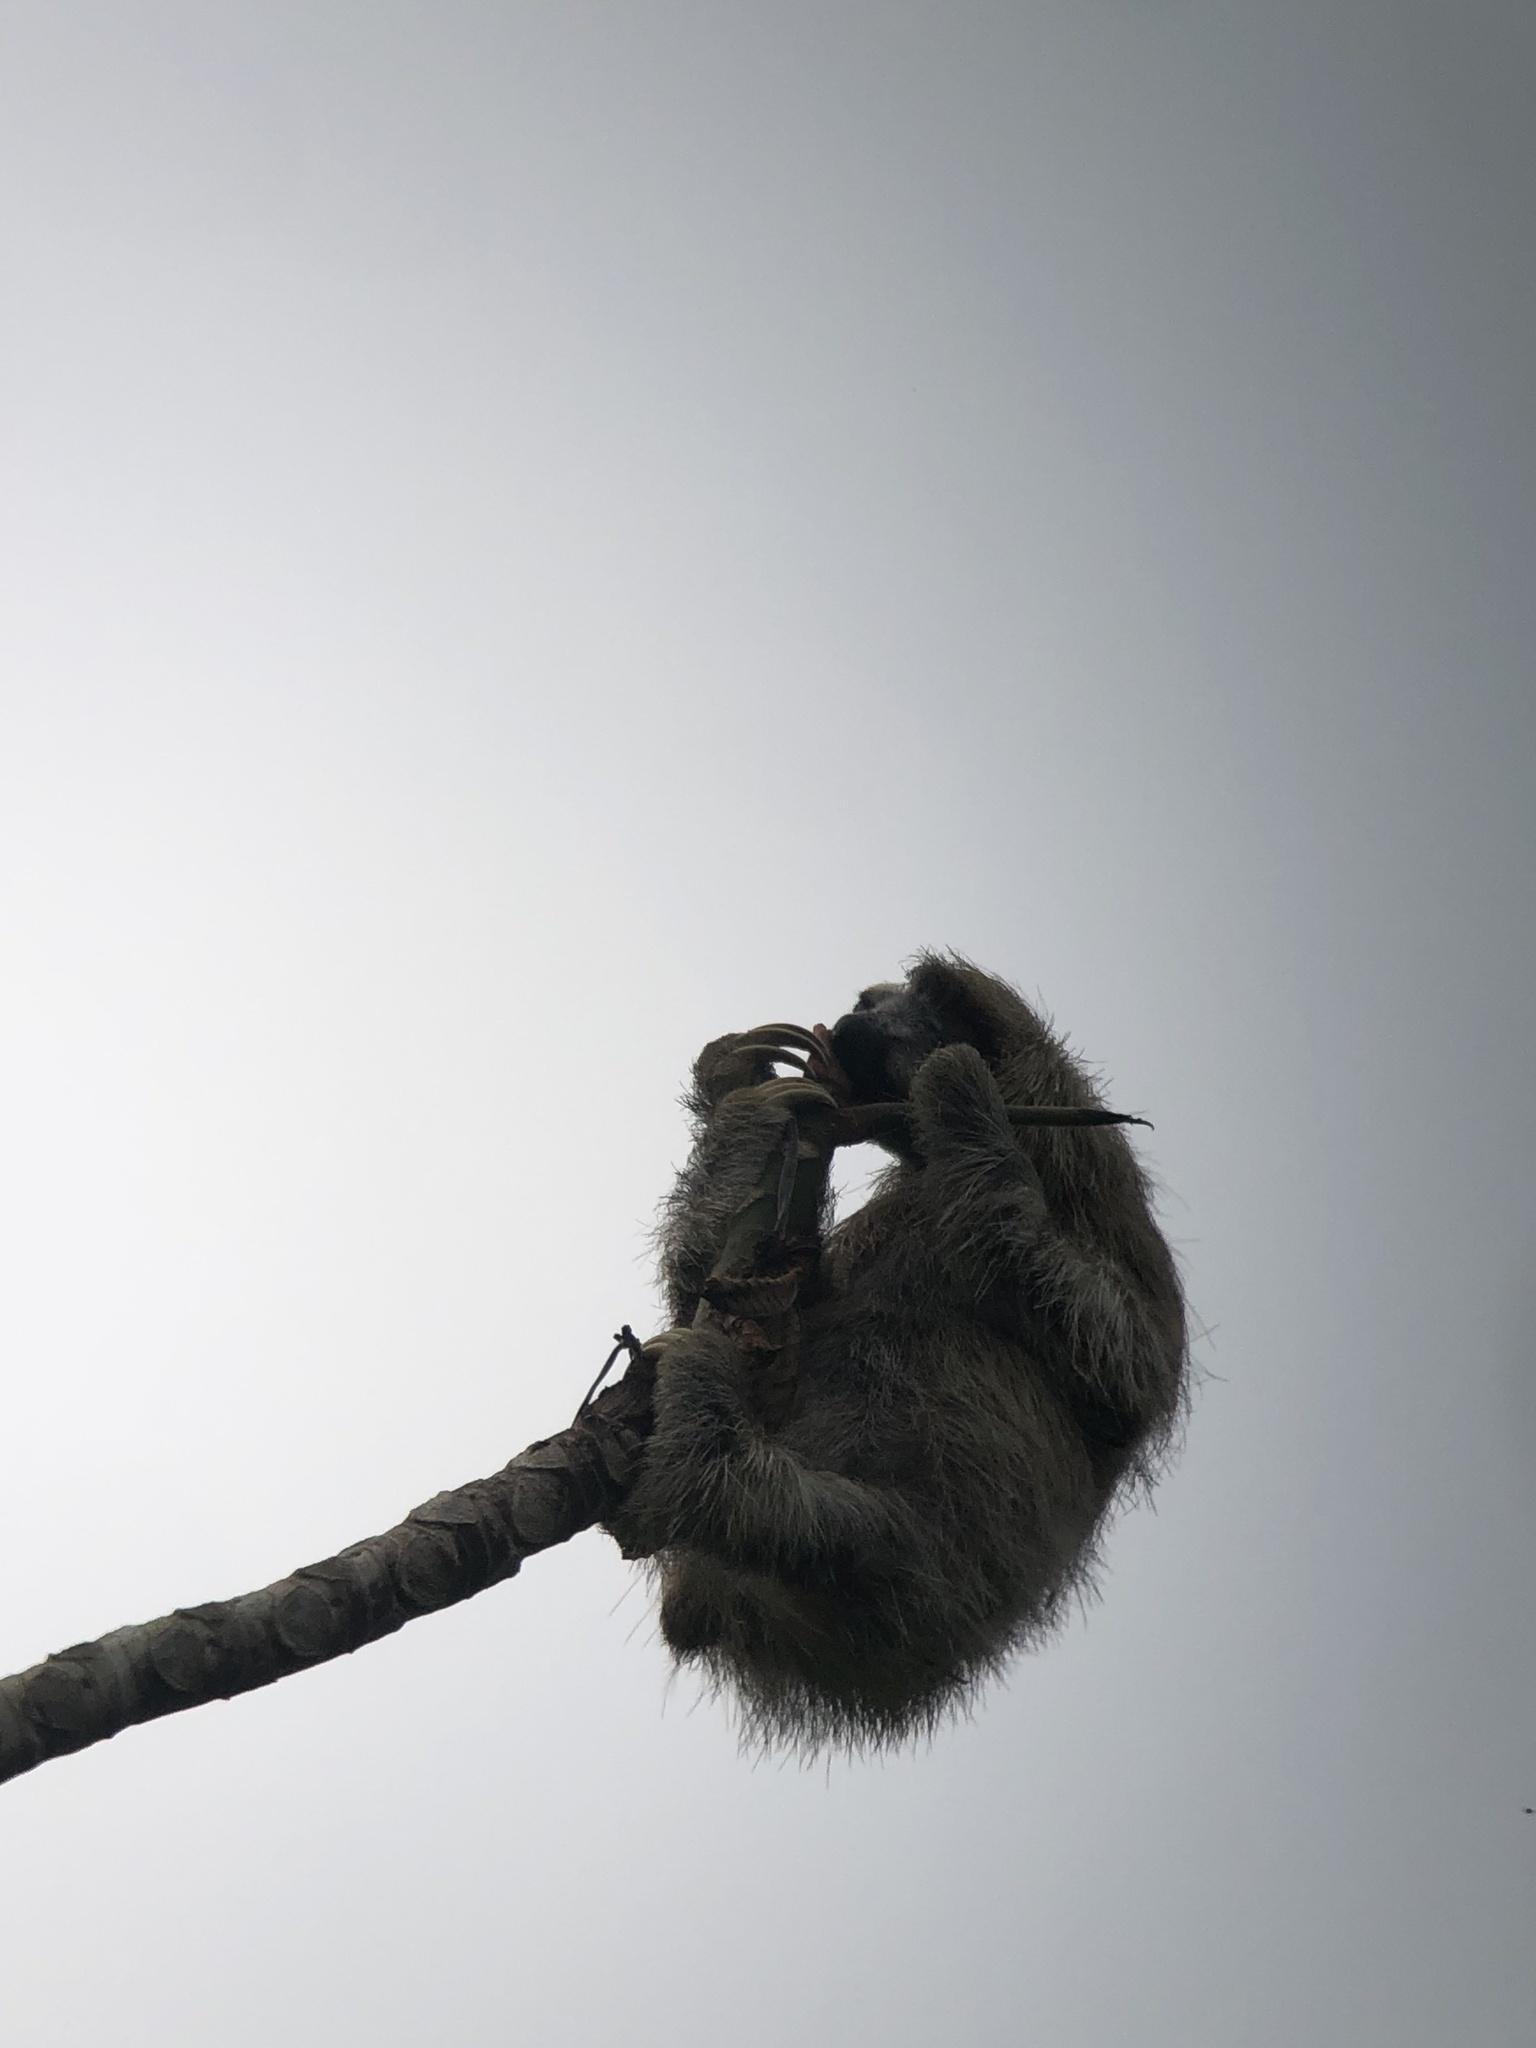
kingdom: Animalia
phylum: Chordata
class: Mammalia
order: Pilosa
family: Bradypodidae
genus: Bradypus
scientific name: Bradypus variegatus
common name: Brown-throated three-toed sloth
